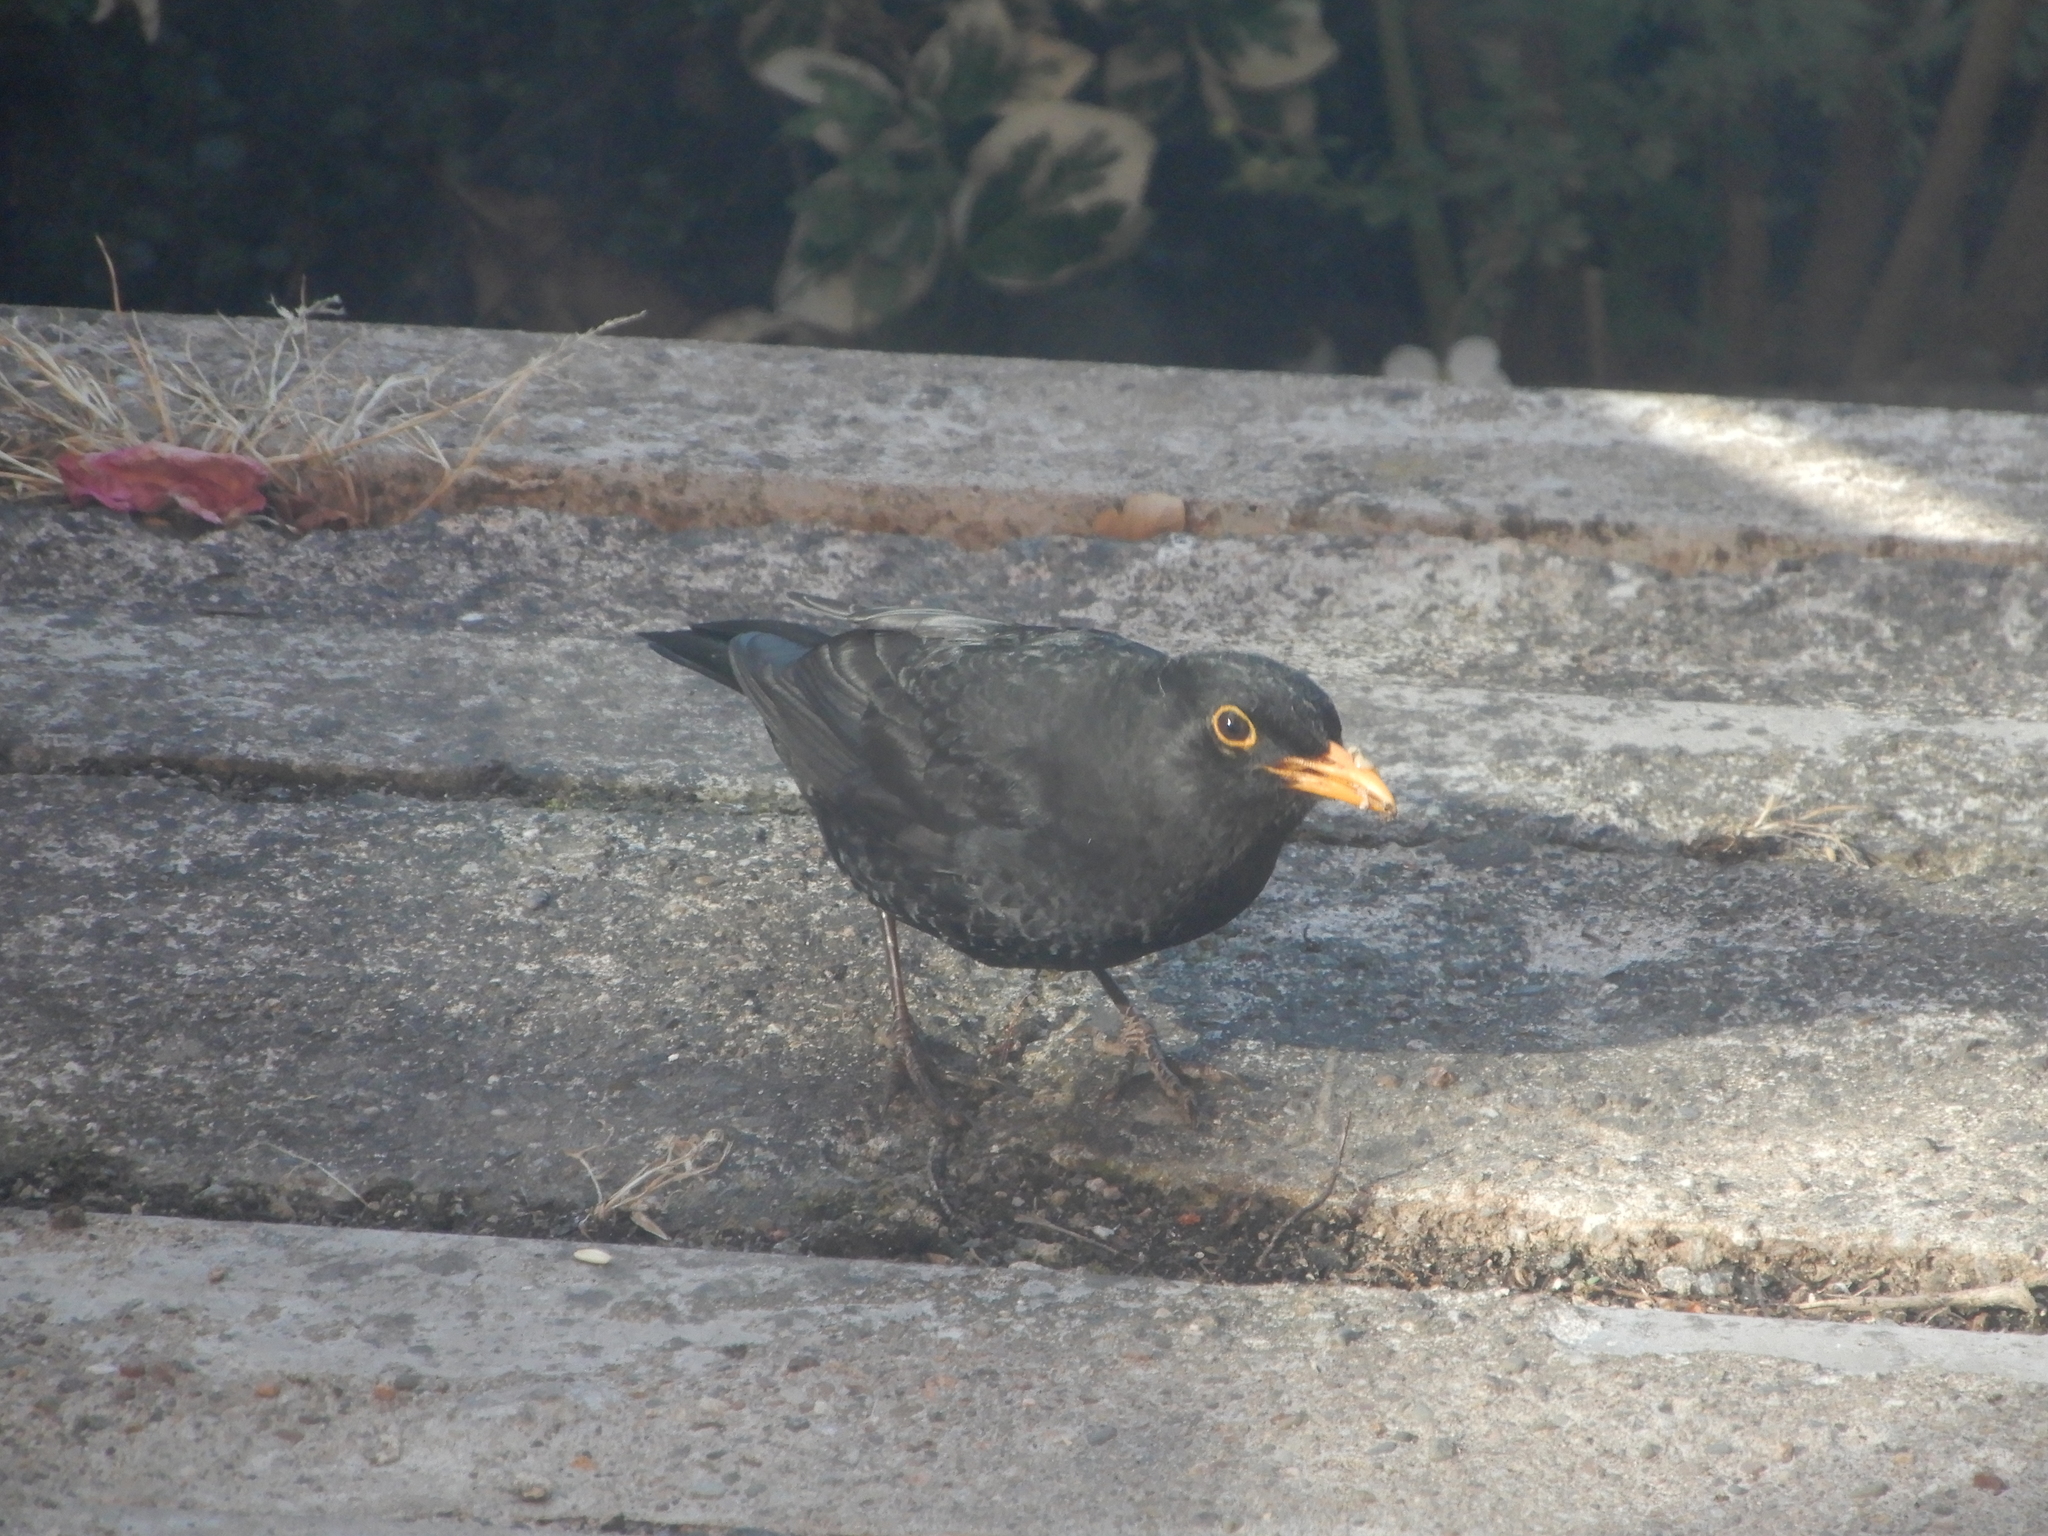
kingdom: Animalia
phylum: Chordata
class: Aves
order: Passeriformes
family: Turdidae
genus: Turdus
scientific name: Turdus merula
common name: Common blackbird
